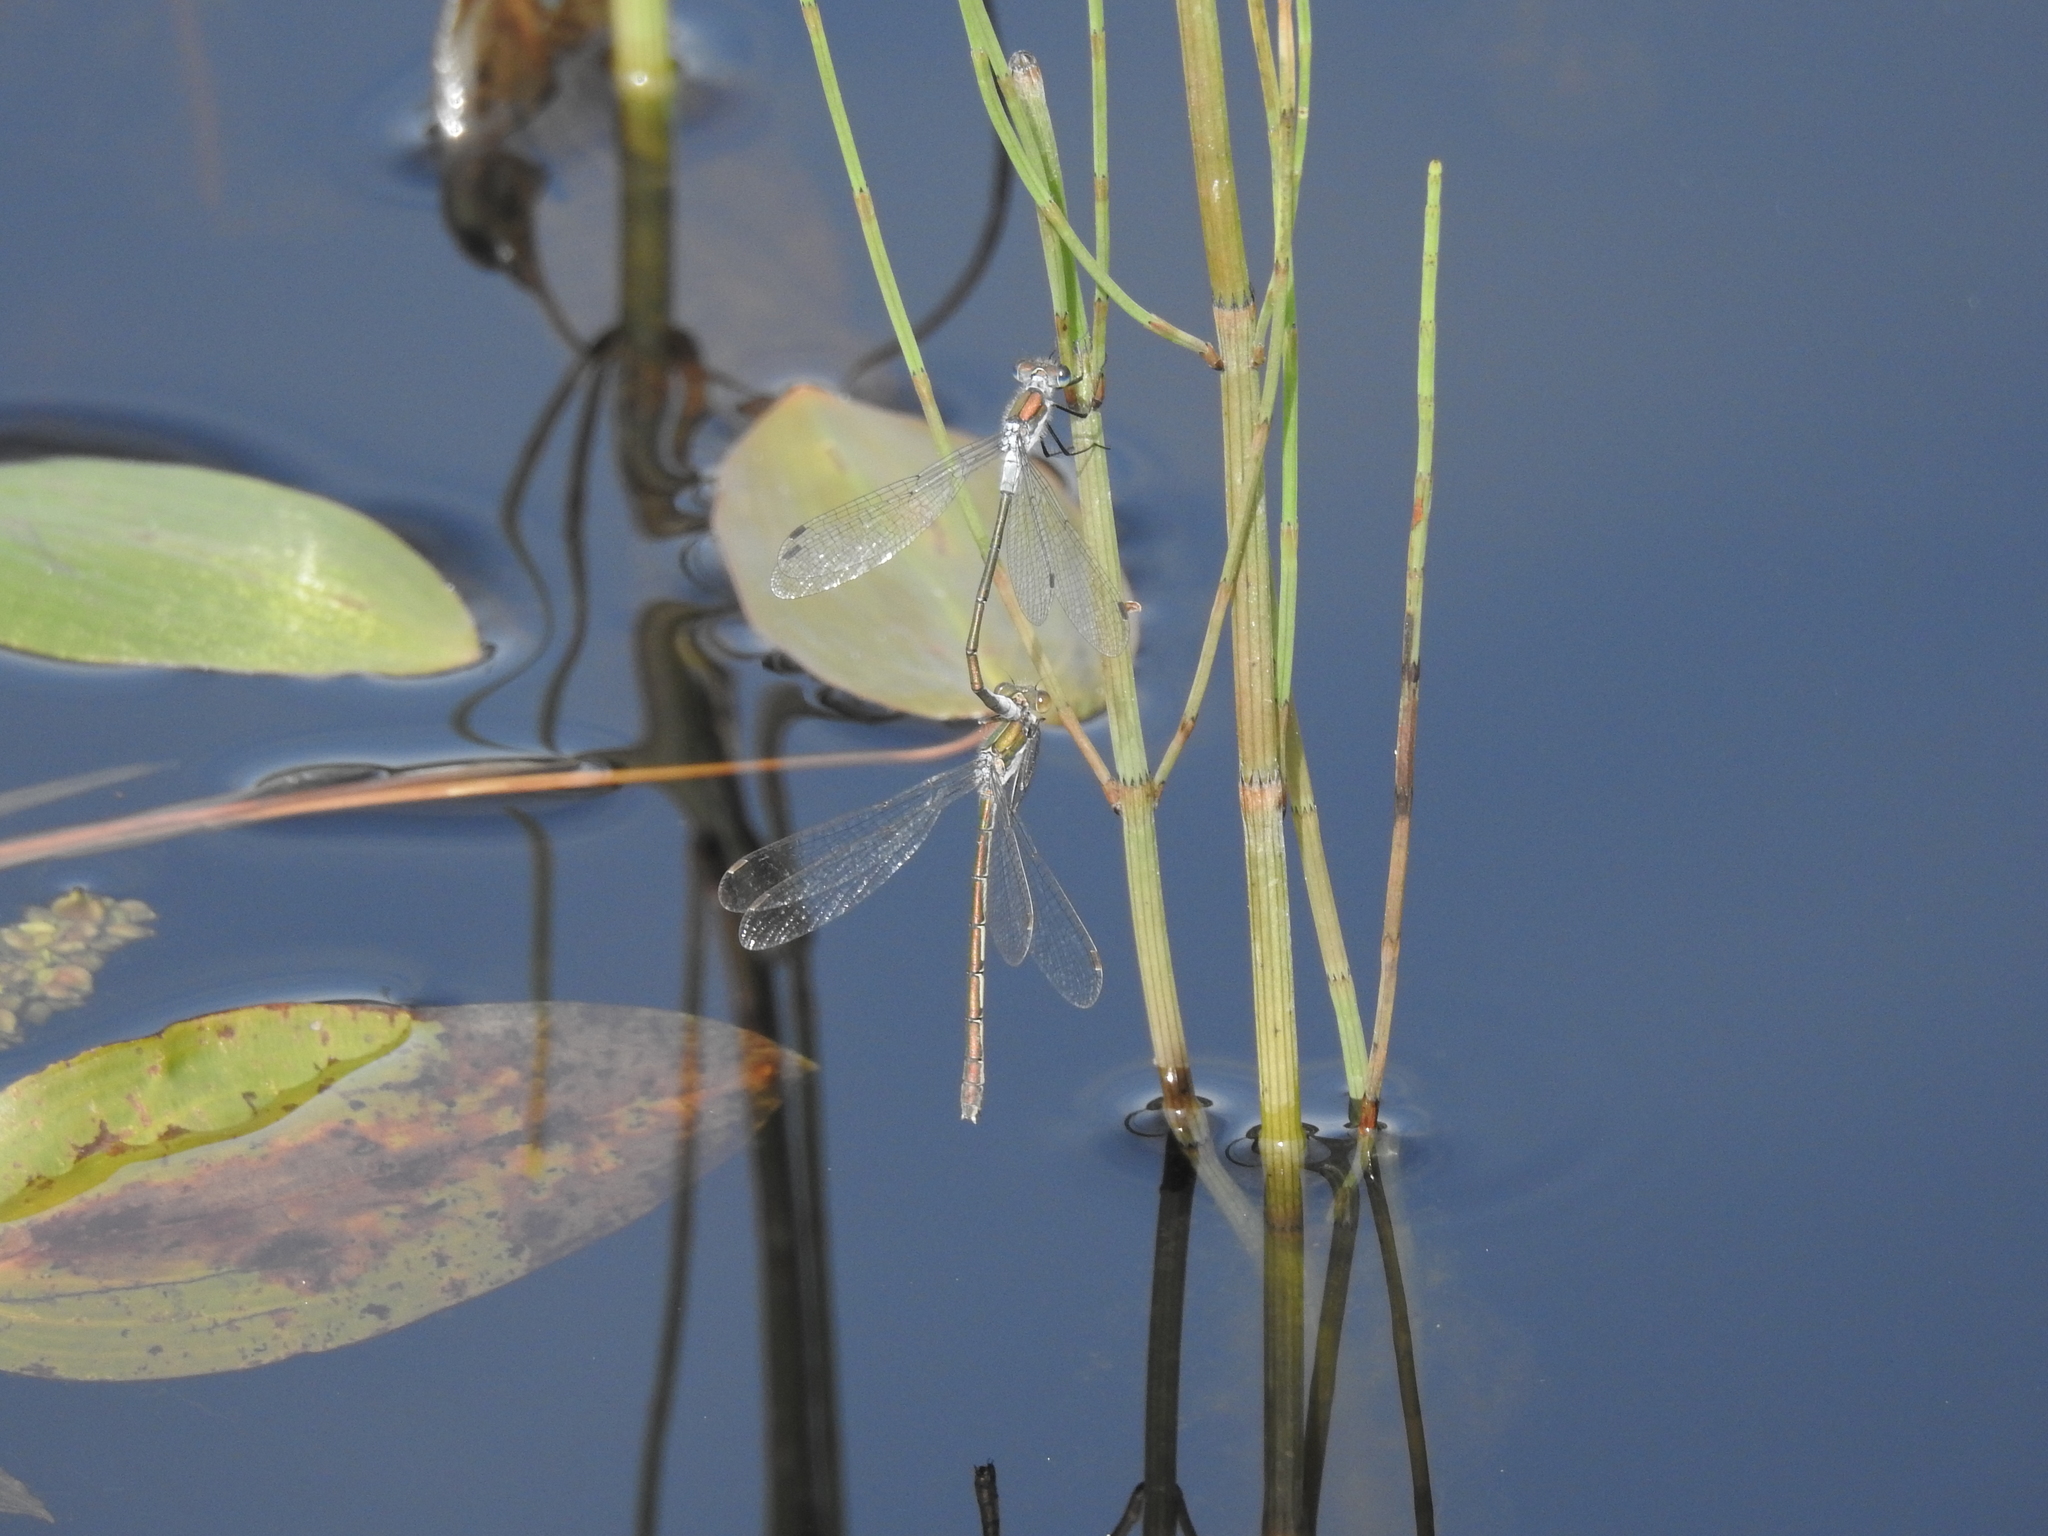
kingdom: Animalia
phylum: Arthropoda
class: Insecta
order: Odonata
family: Lestidae
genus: Lestes
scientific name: Lestes sponsa
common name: Common spreadwing
